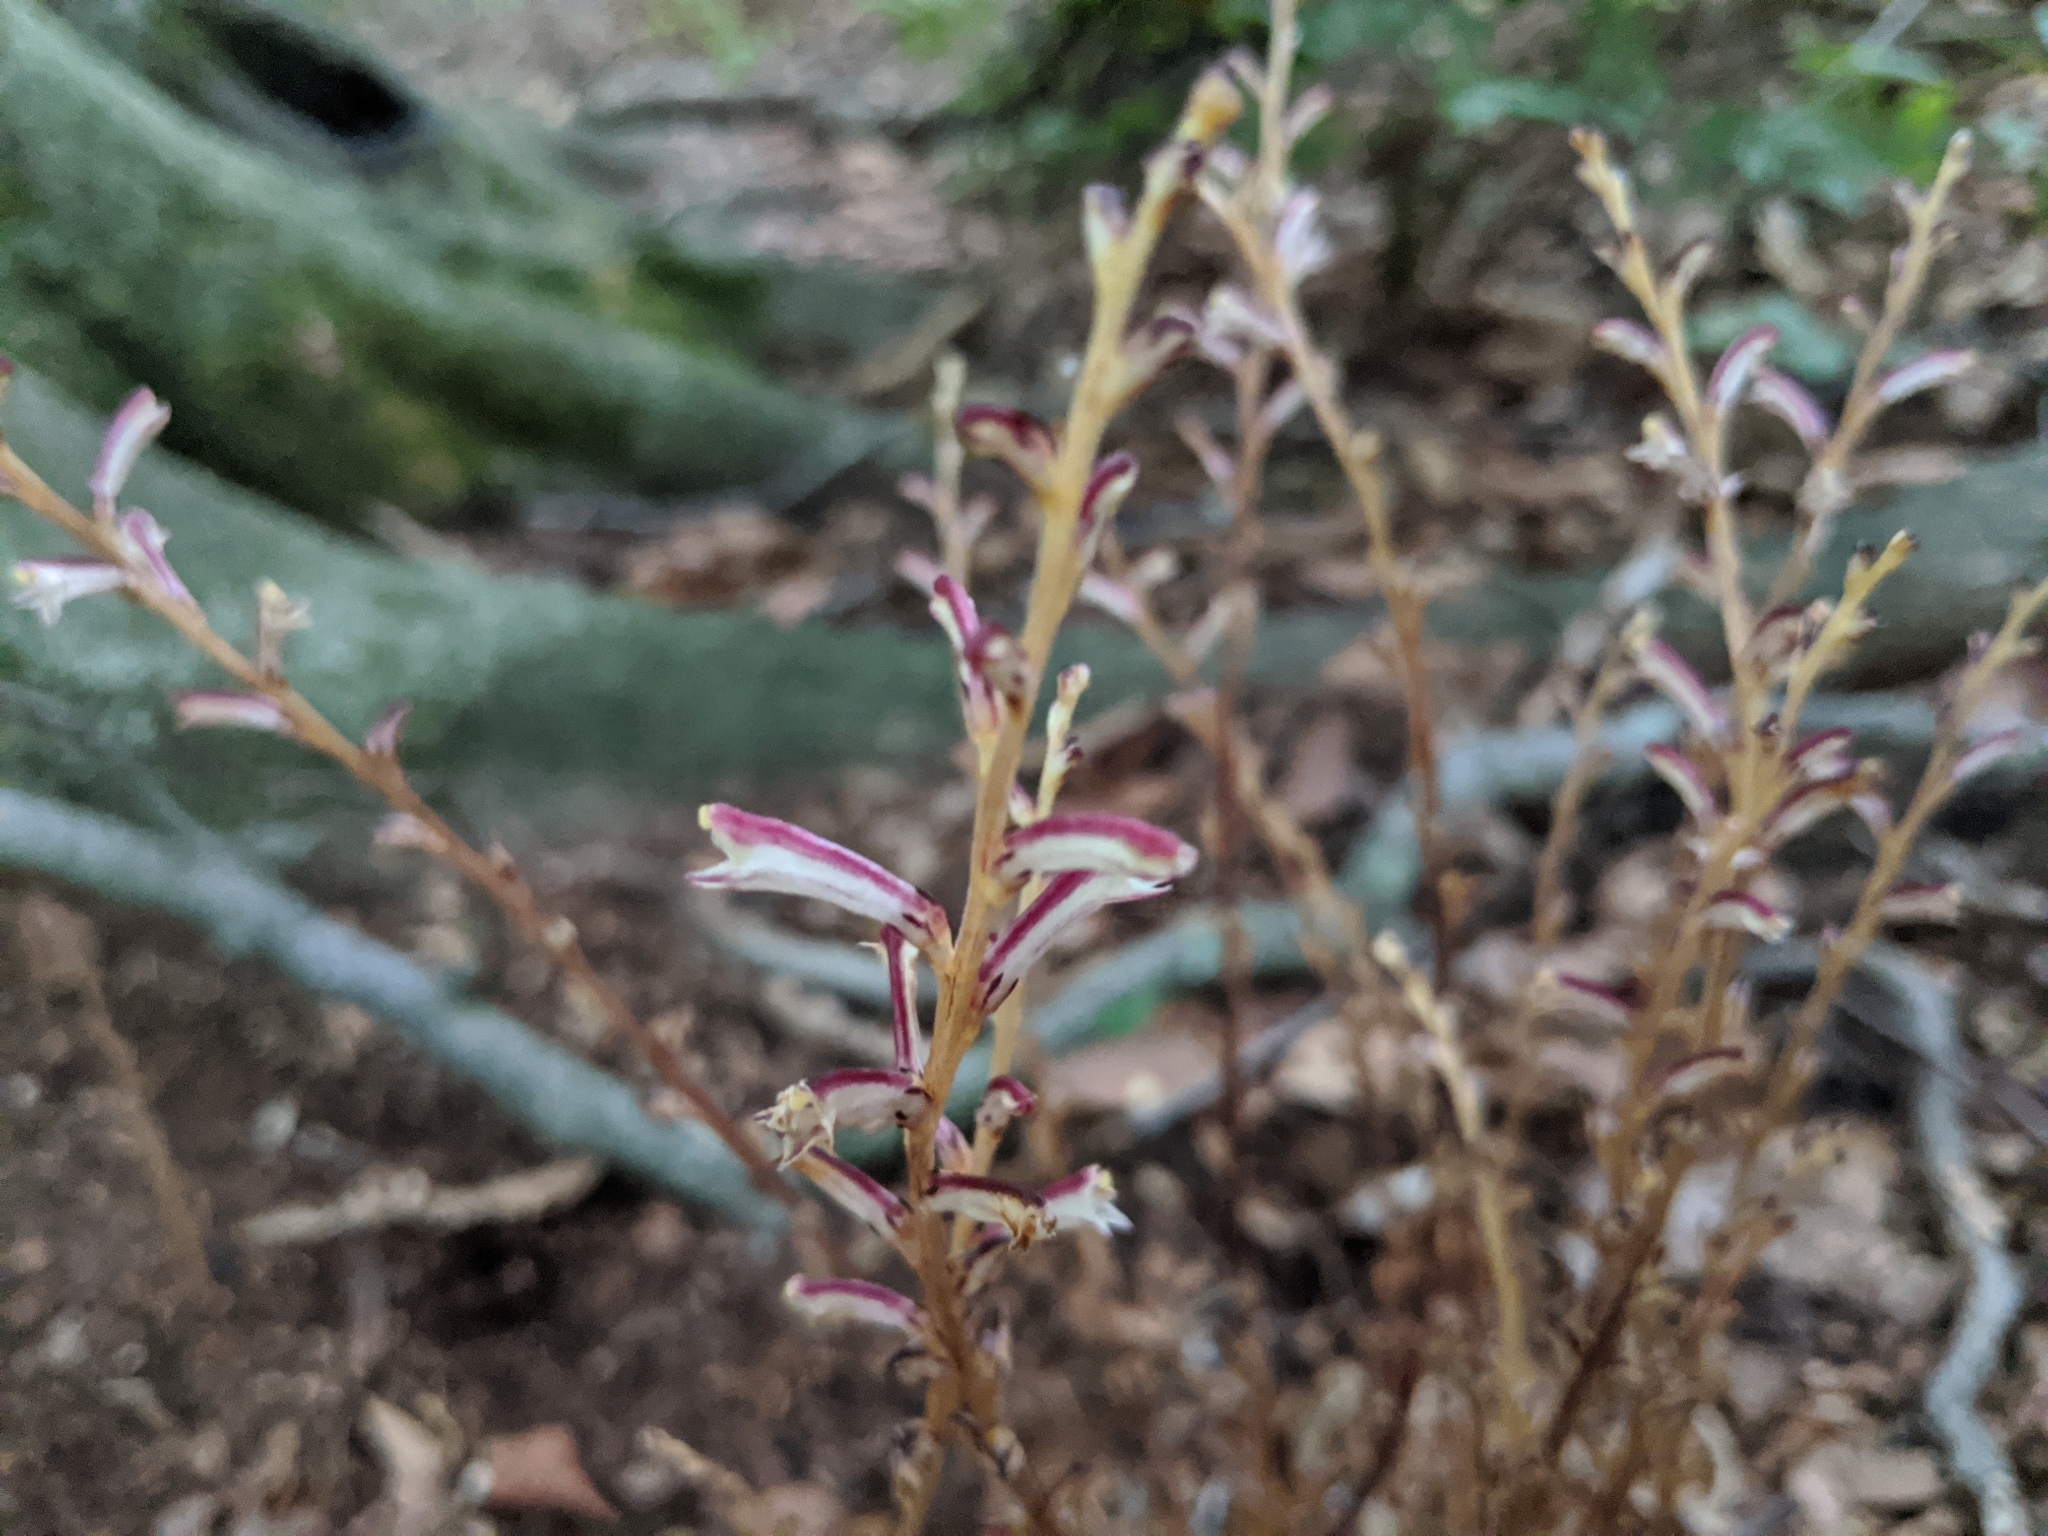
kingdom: Plantae
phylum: Tracheophyta
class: Magnoliopsida
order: Lamiales
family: Orobanchaceae
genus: Epifagus
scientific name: Epifagus virginiana
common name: Beechdrops
